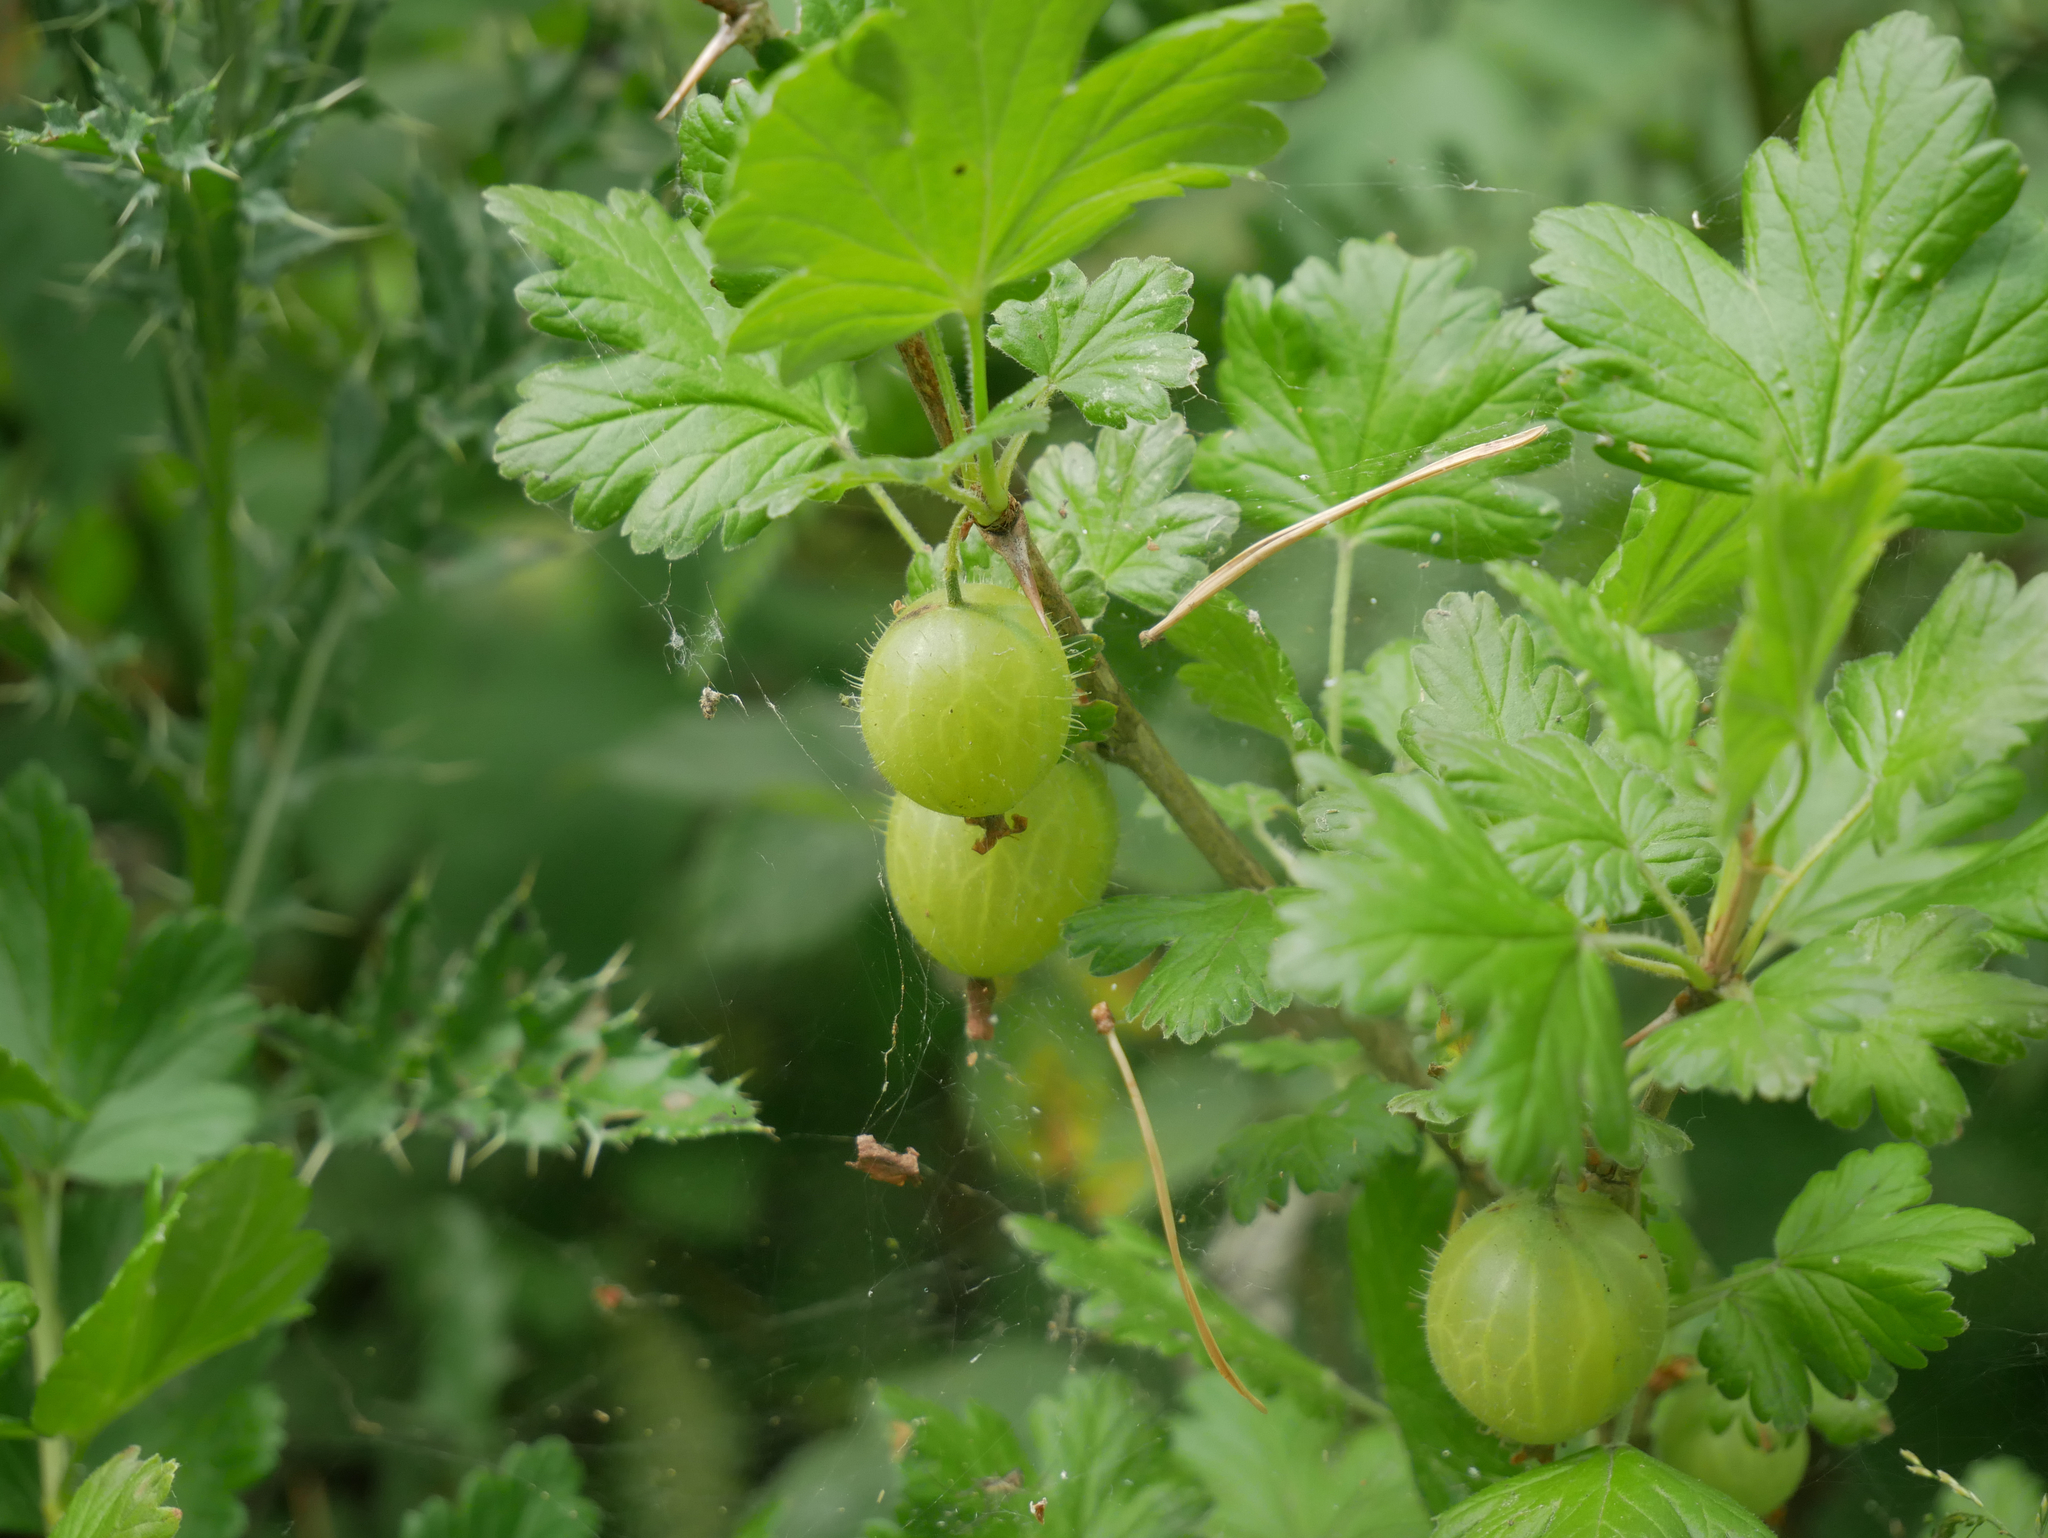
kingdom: Plantae
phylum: Tracheophyta
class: Magnoliopsida
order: Saxifragales
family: Grossulariaceae
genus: Ribes
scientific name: Ribes uva-crispa
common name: Gooseberry
